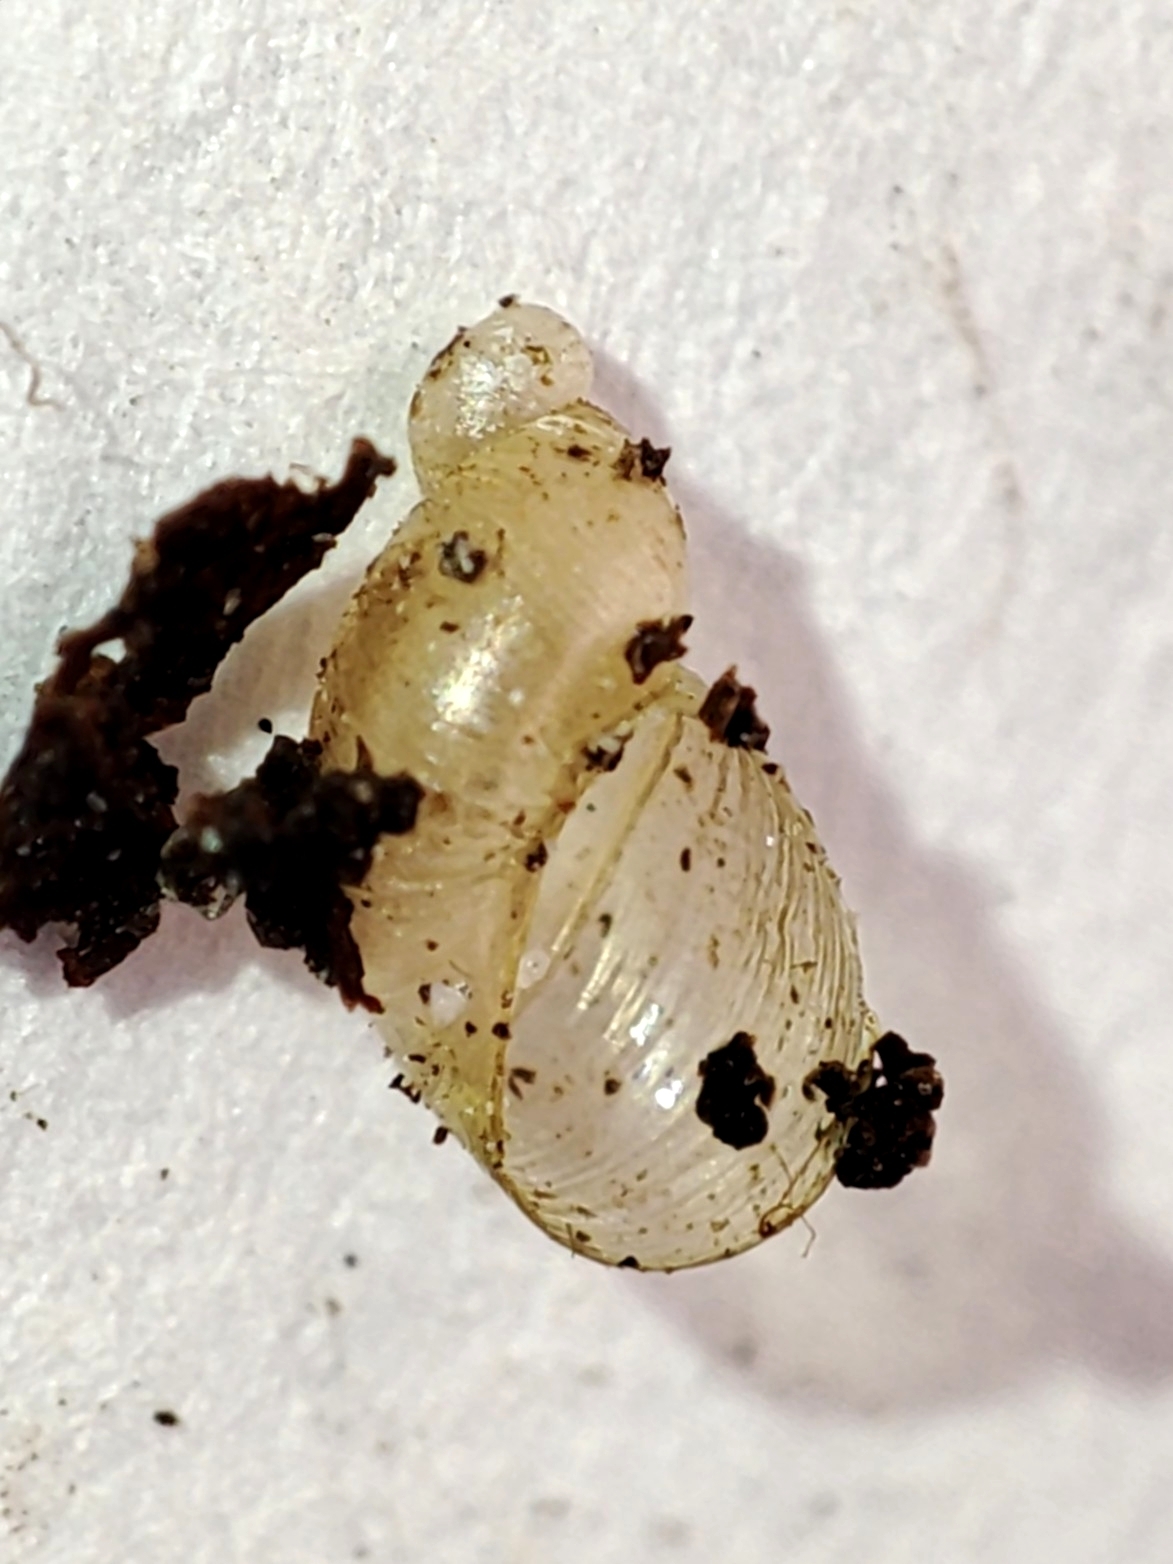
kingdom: Animalia
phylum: Mollusca
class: Gastropoda
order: Stylommatophora
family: Succineidae
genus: Succinella
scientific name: Succinella oblonga
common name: Small amber snail
